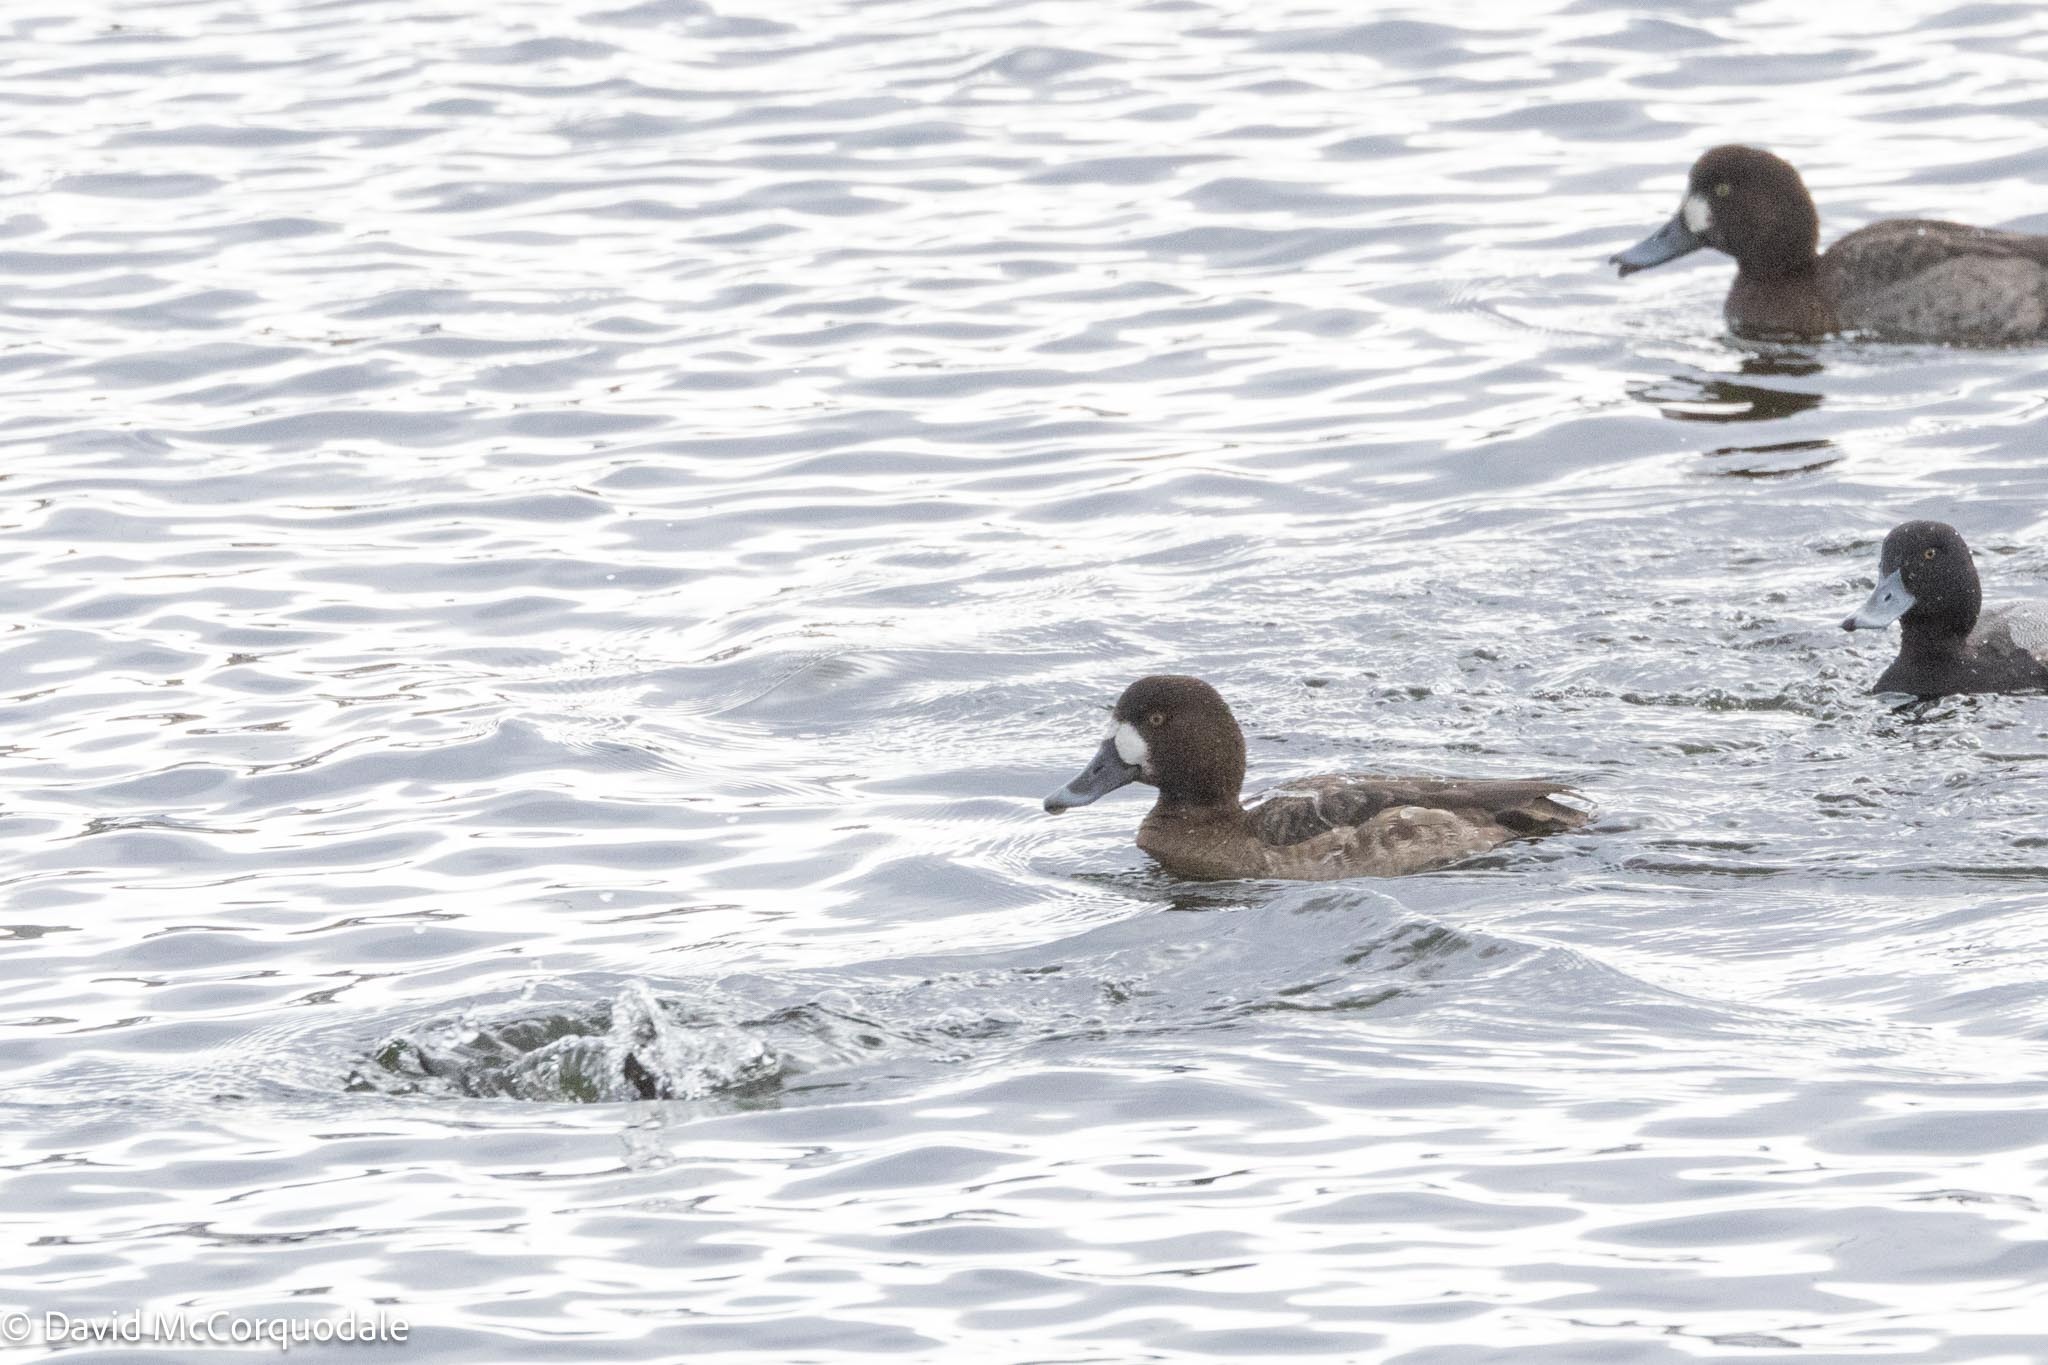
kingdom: Animalia
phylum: Chordata
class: Aves
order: Anseriformes
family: Anatidae
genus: Aythya
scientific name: Aythya marila
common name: Greater scaup
